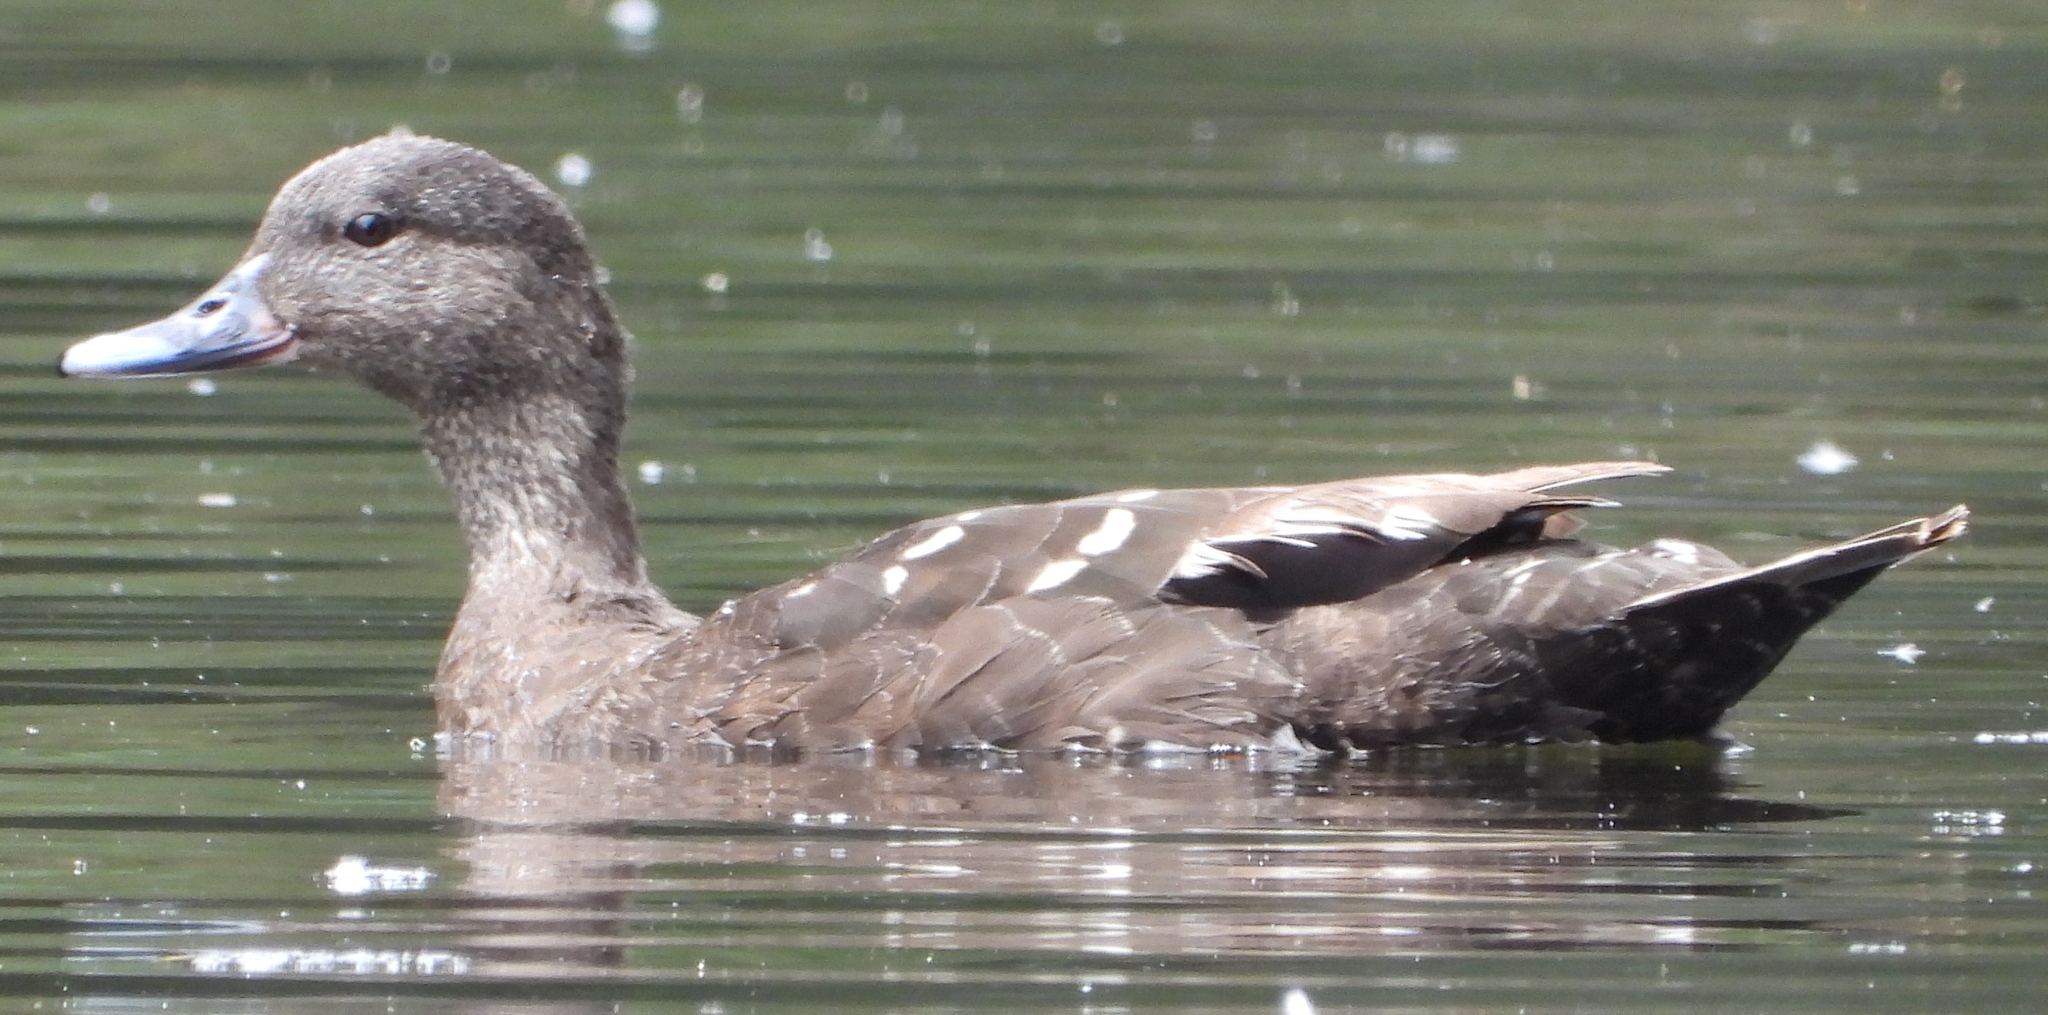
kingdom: Animalia
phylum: Chordata
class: Aves
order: Anseriformes
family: Anatidae
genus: Anas
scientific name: Anas sparsa
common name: African black duck
